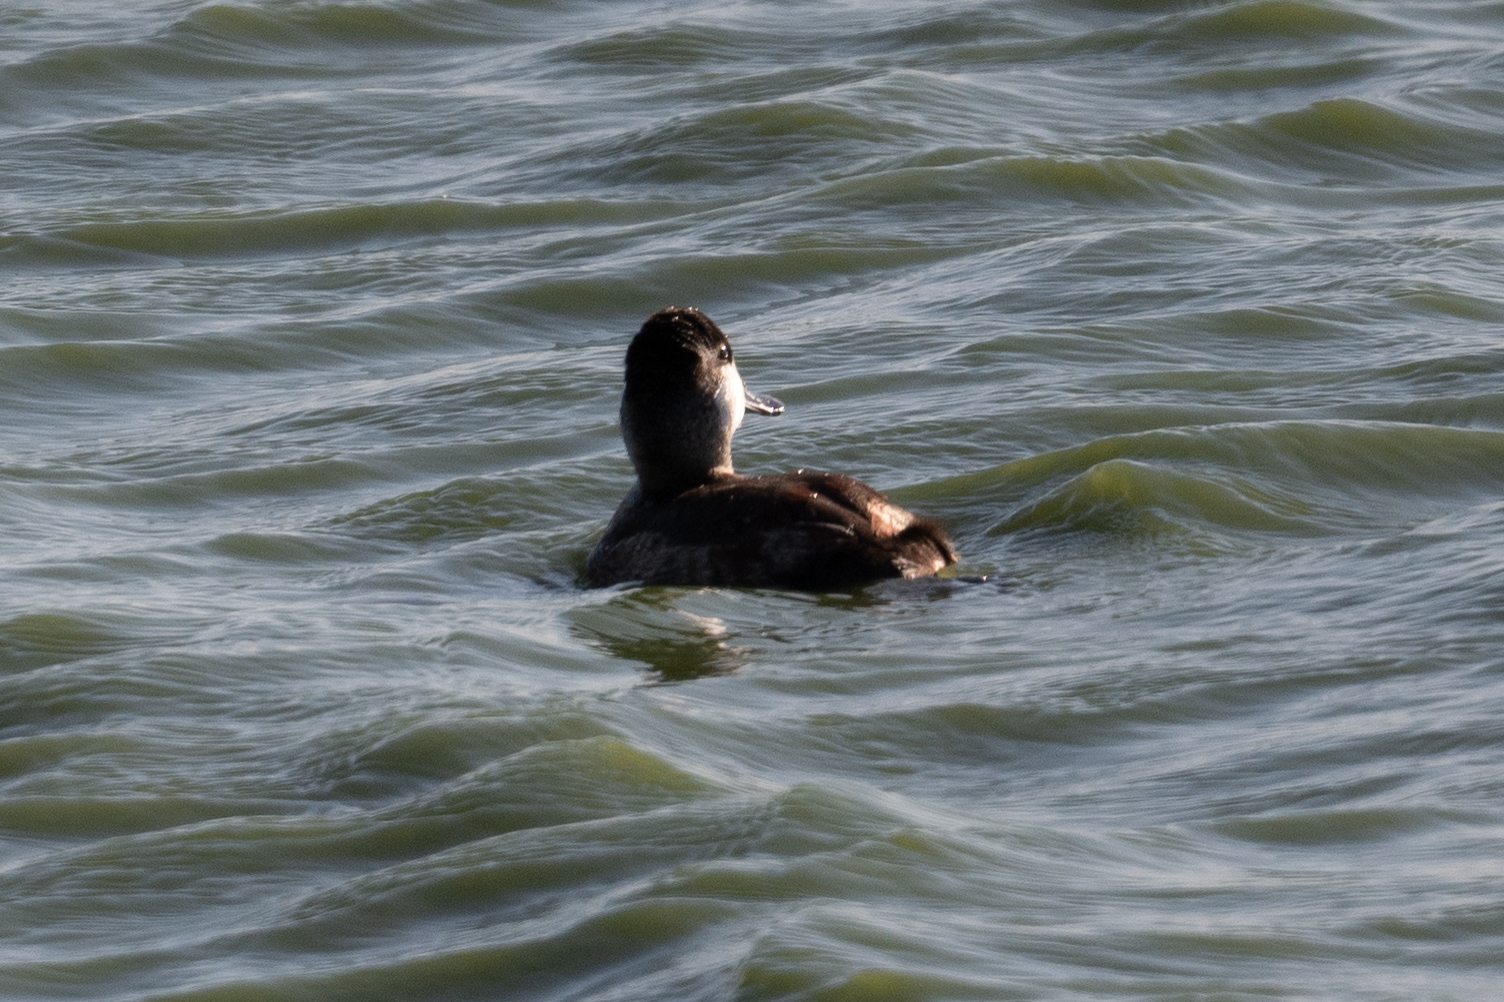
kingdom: Animalia
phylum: Chordata
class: Aves
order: Anseriformes
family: Anatidae
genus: Oxyura
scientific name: Oxyura jamaicensis
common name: Ruddy duck
